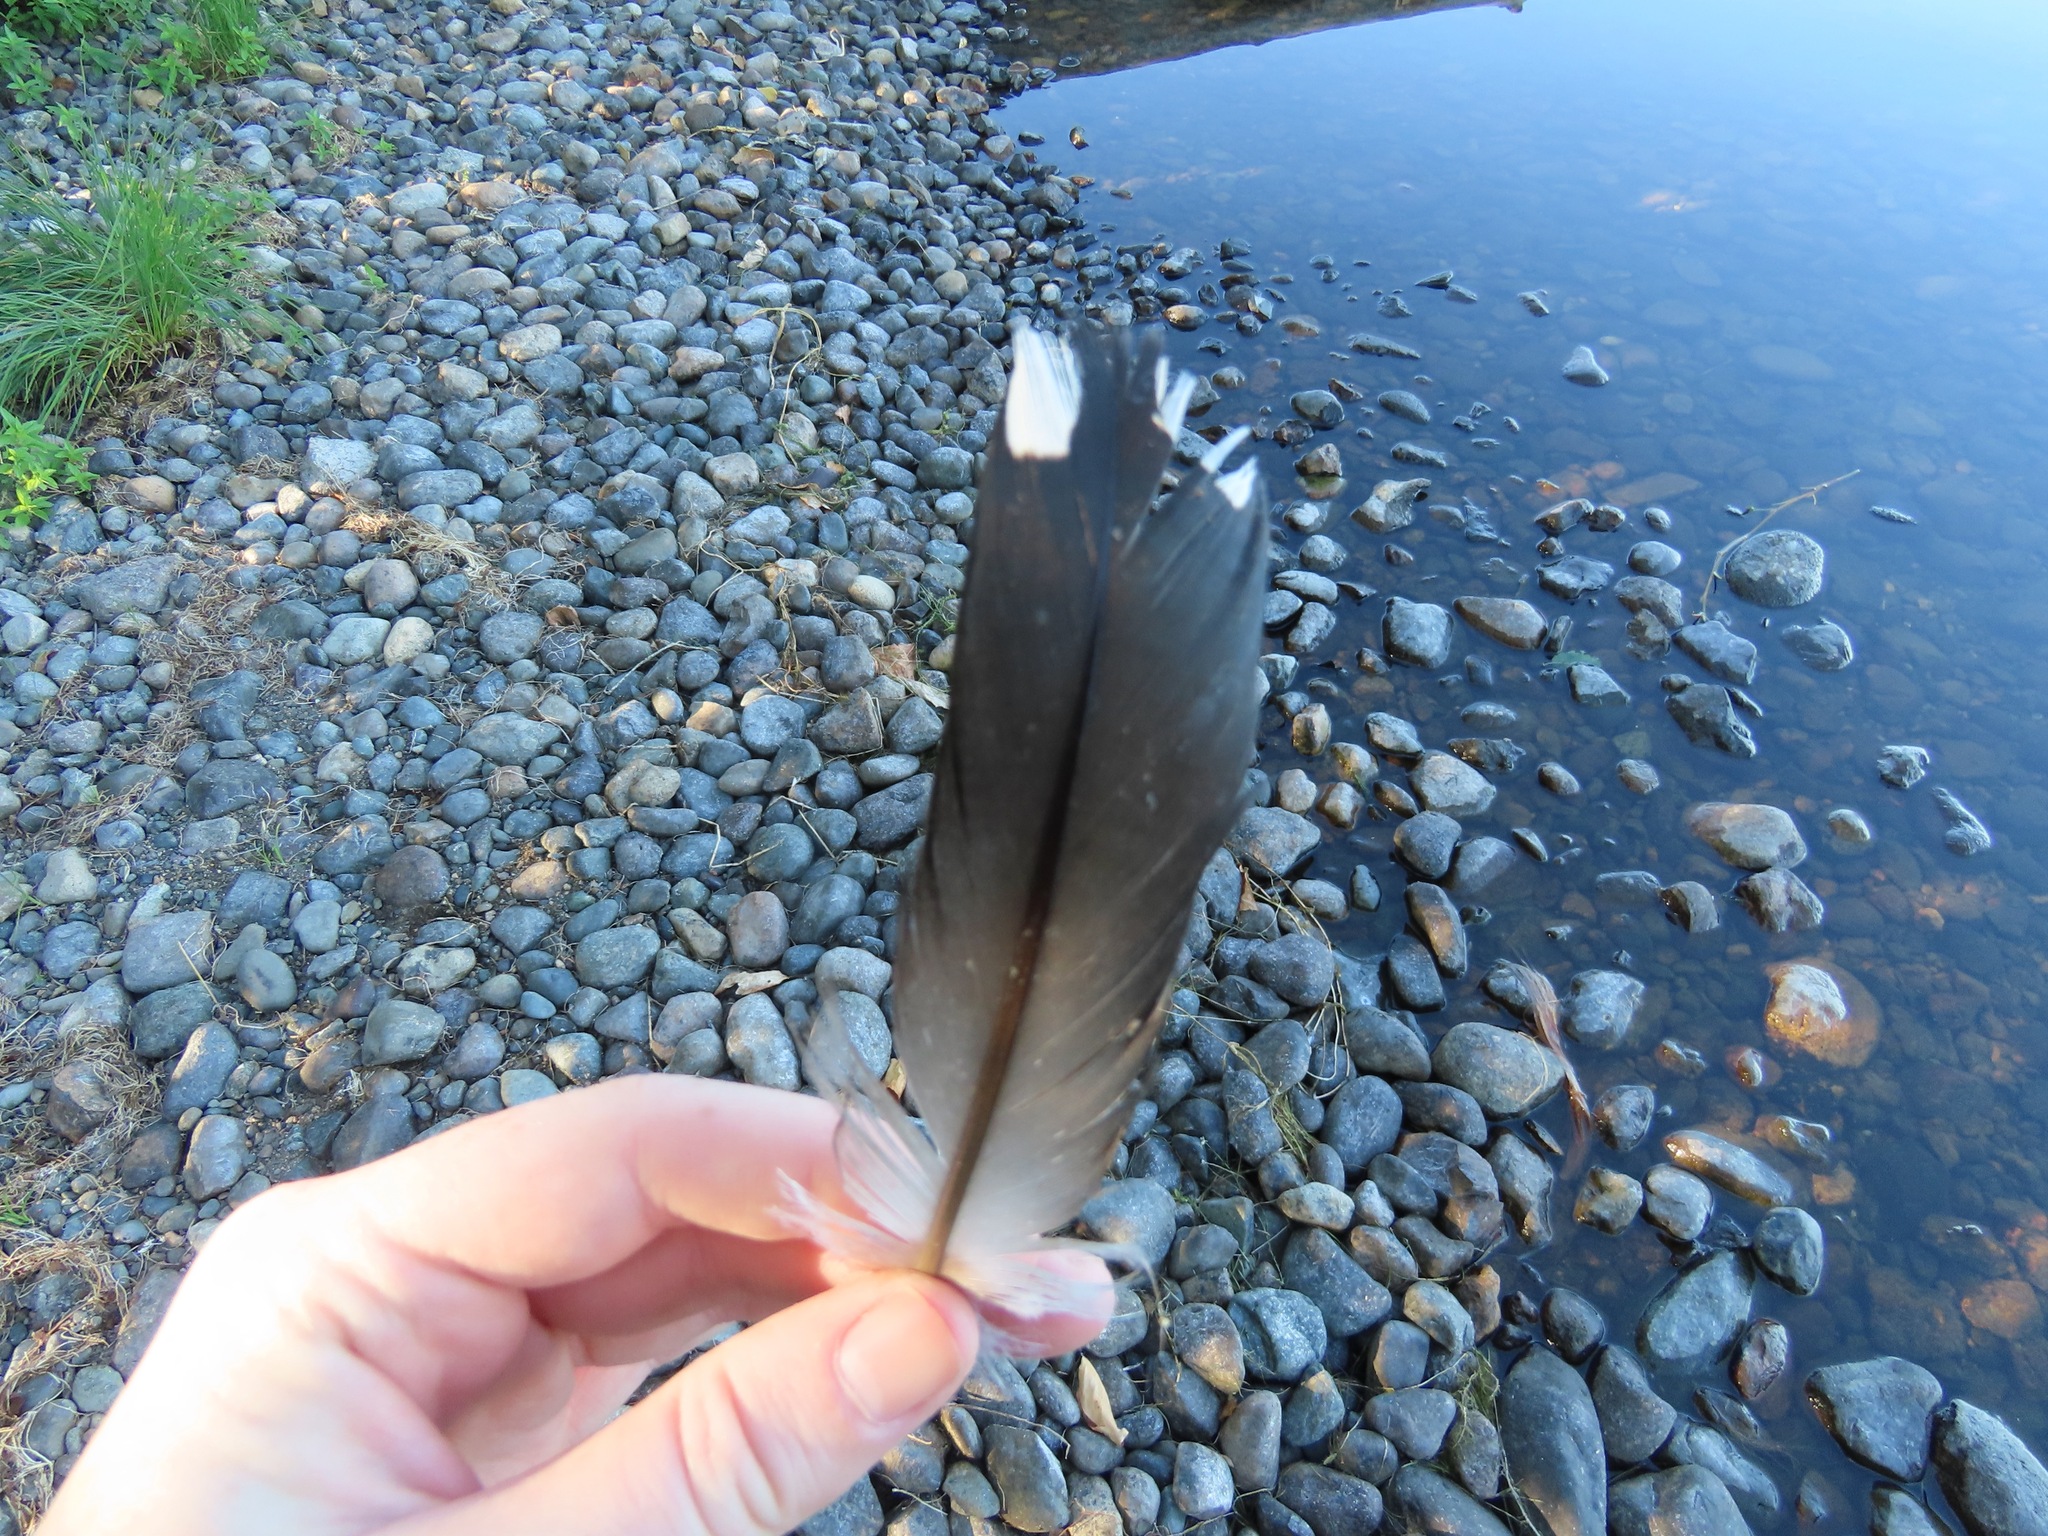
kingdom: Animalia
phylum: Chordata
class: Aves
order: Gaviiformes
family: Gaviidae
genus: Gavia
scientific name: Gavia immer
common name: Common loon
